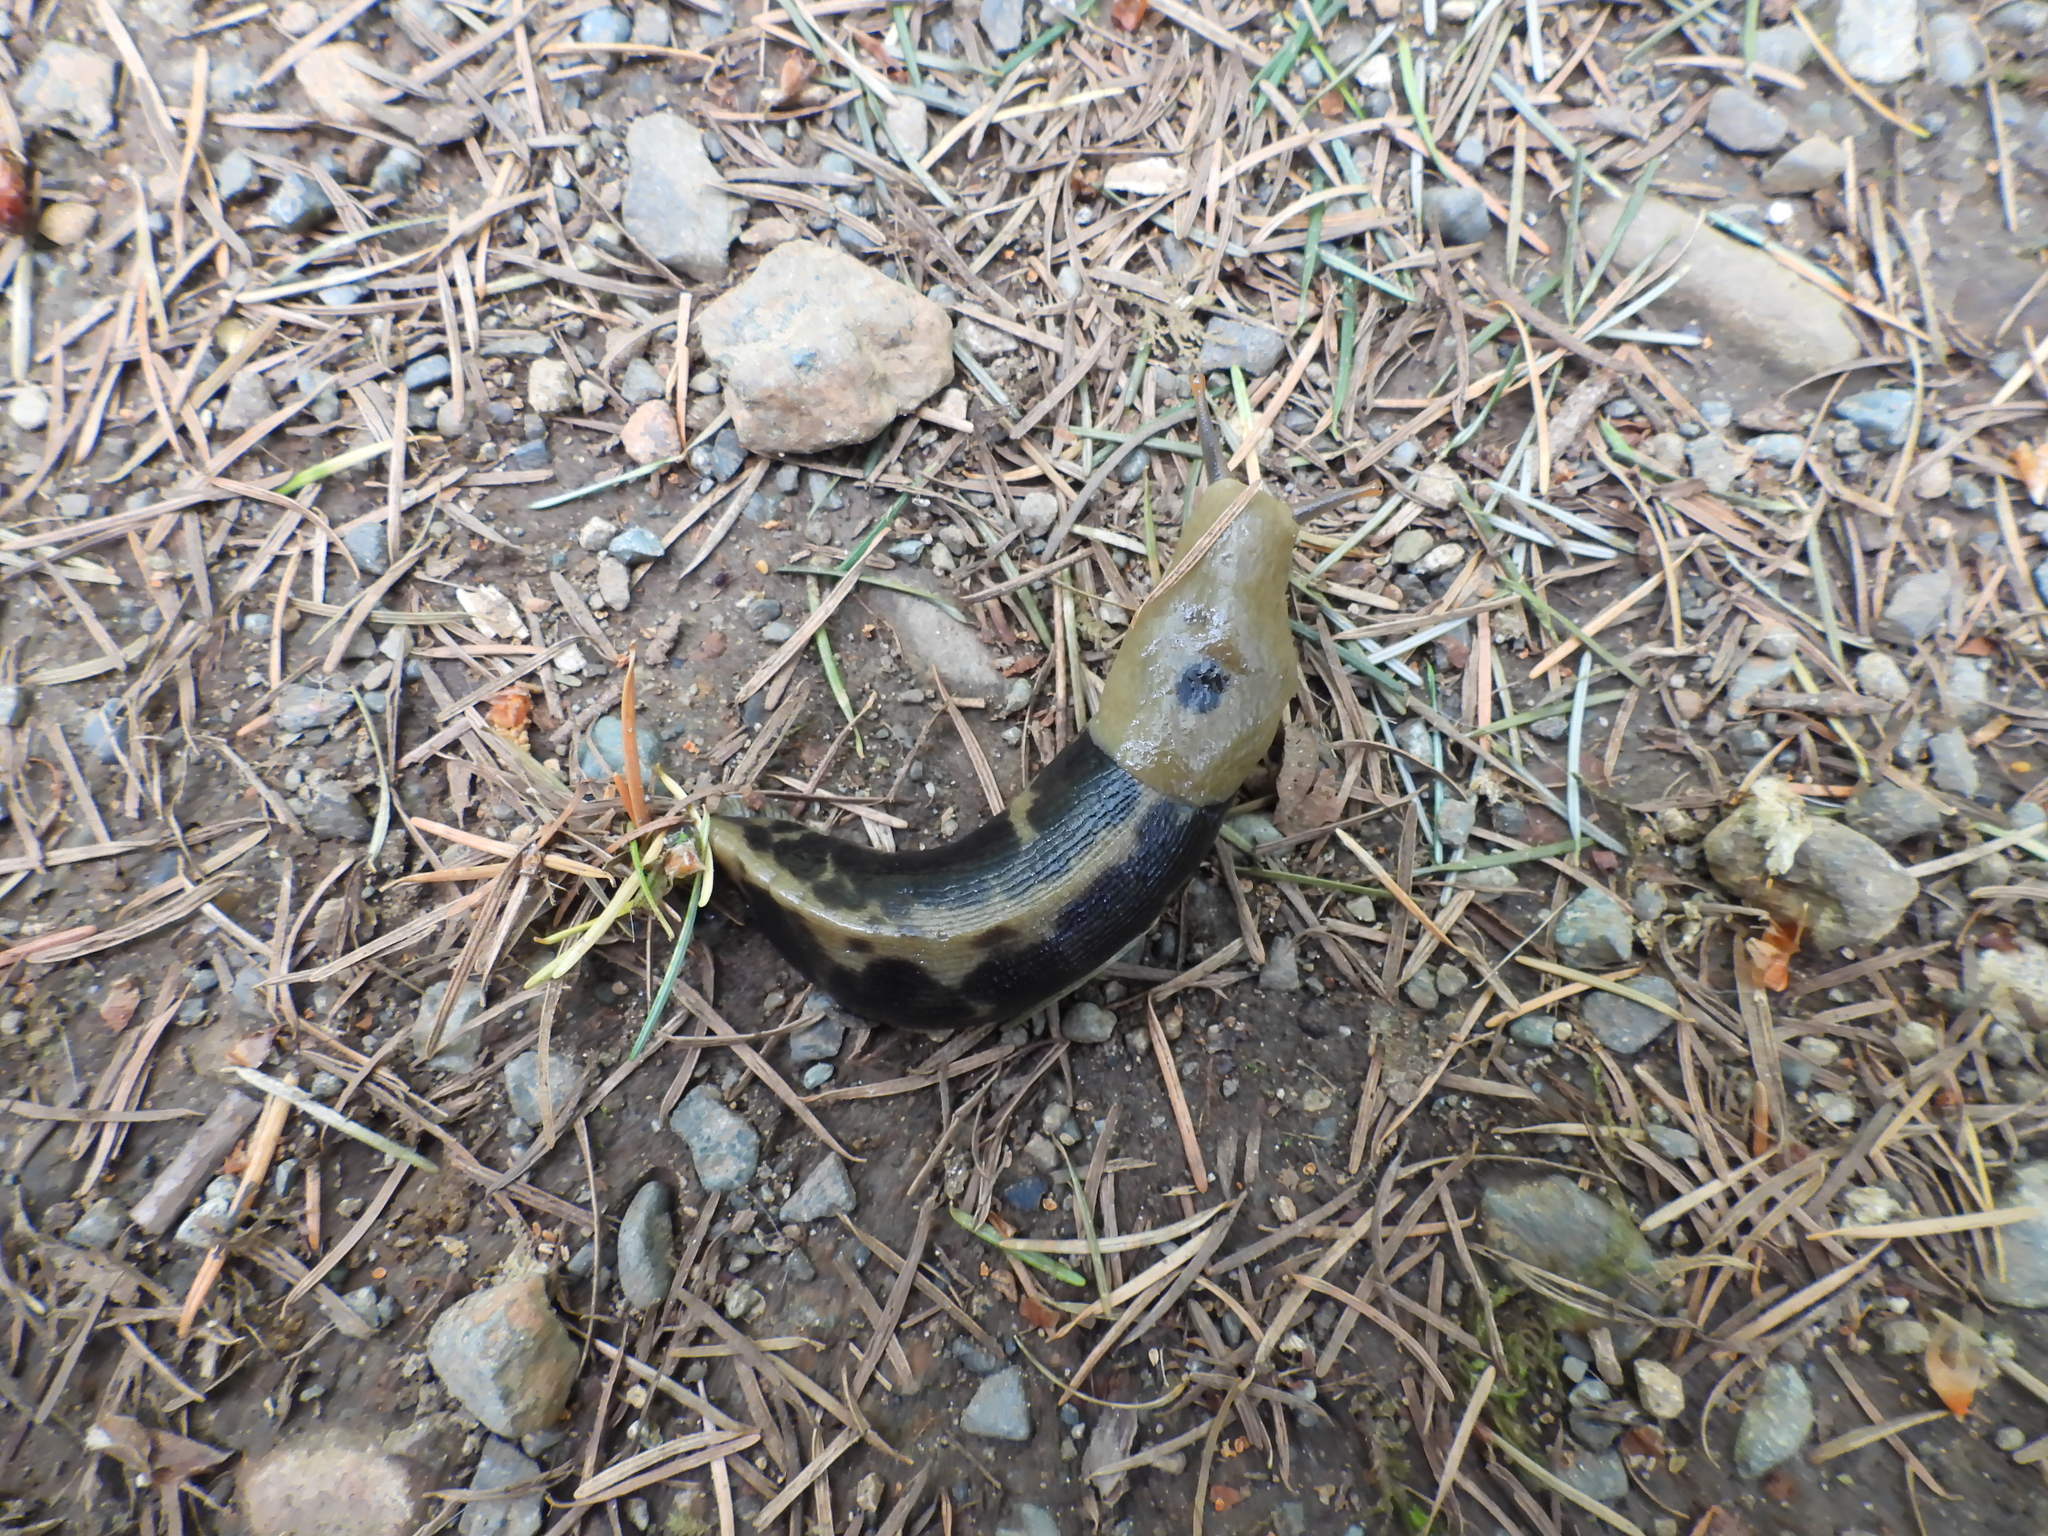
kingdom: Animalia
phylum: Mollusca
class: Gastropoda
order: Stylommatophora
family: Ariolimacidae
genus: Ariolimax
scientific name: Ariolimax columbianus
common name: Pacific banana slug
